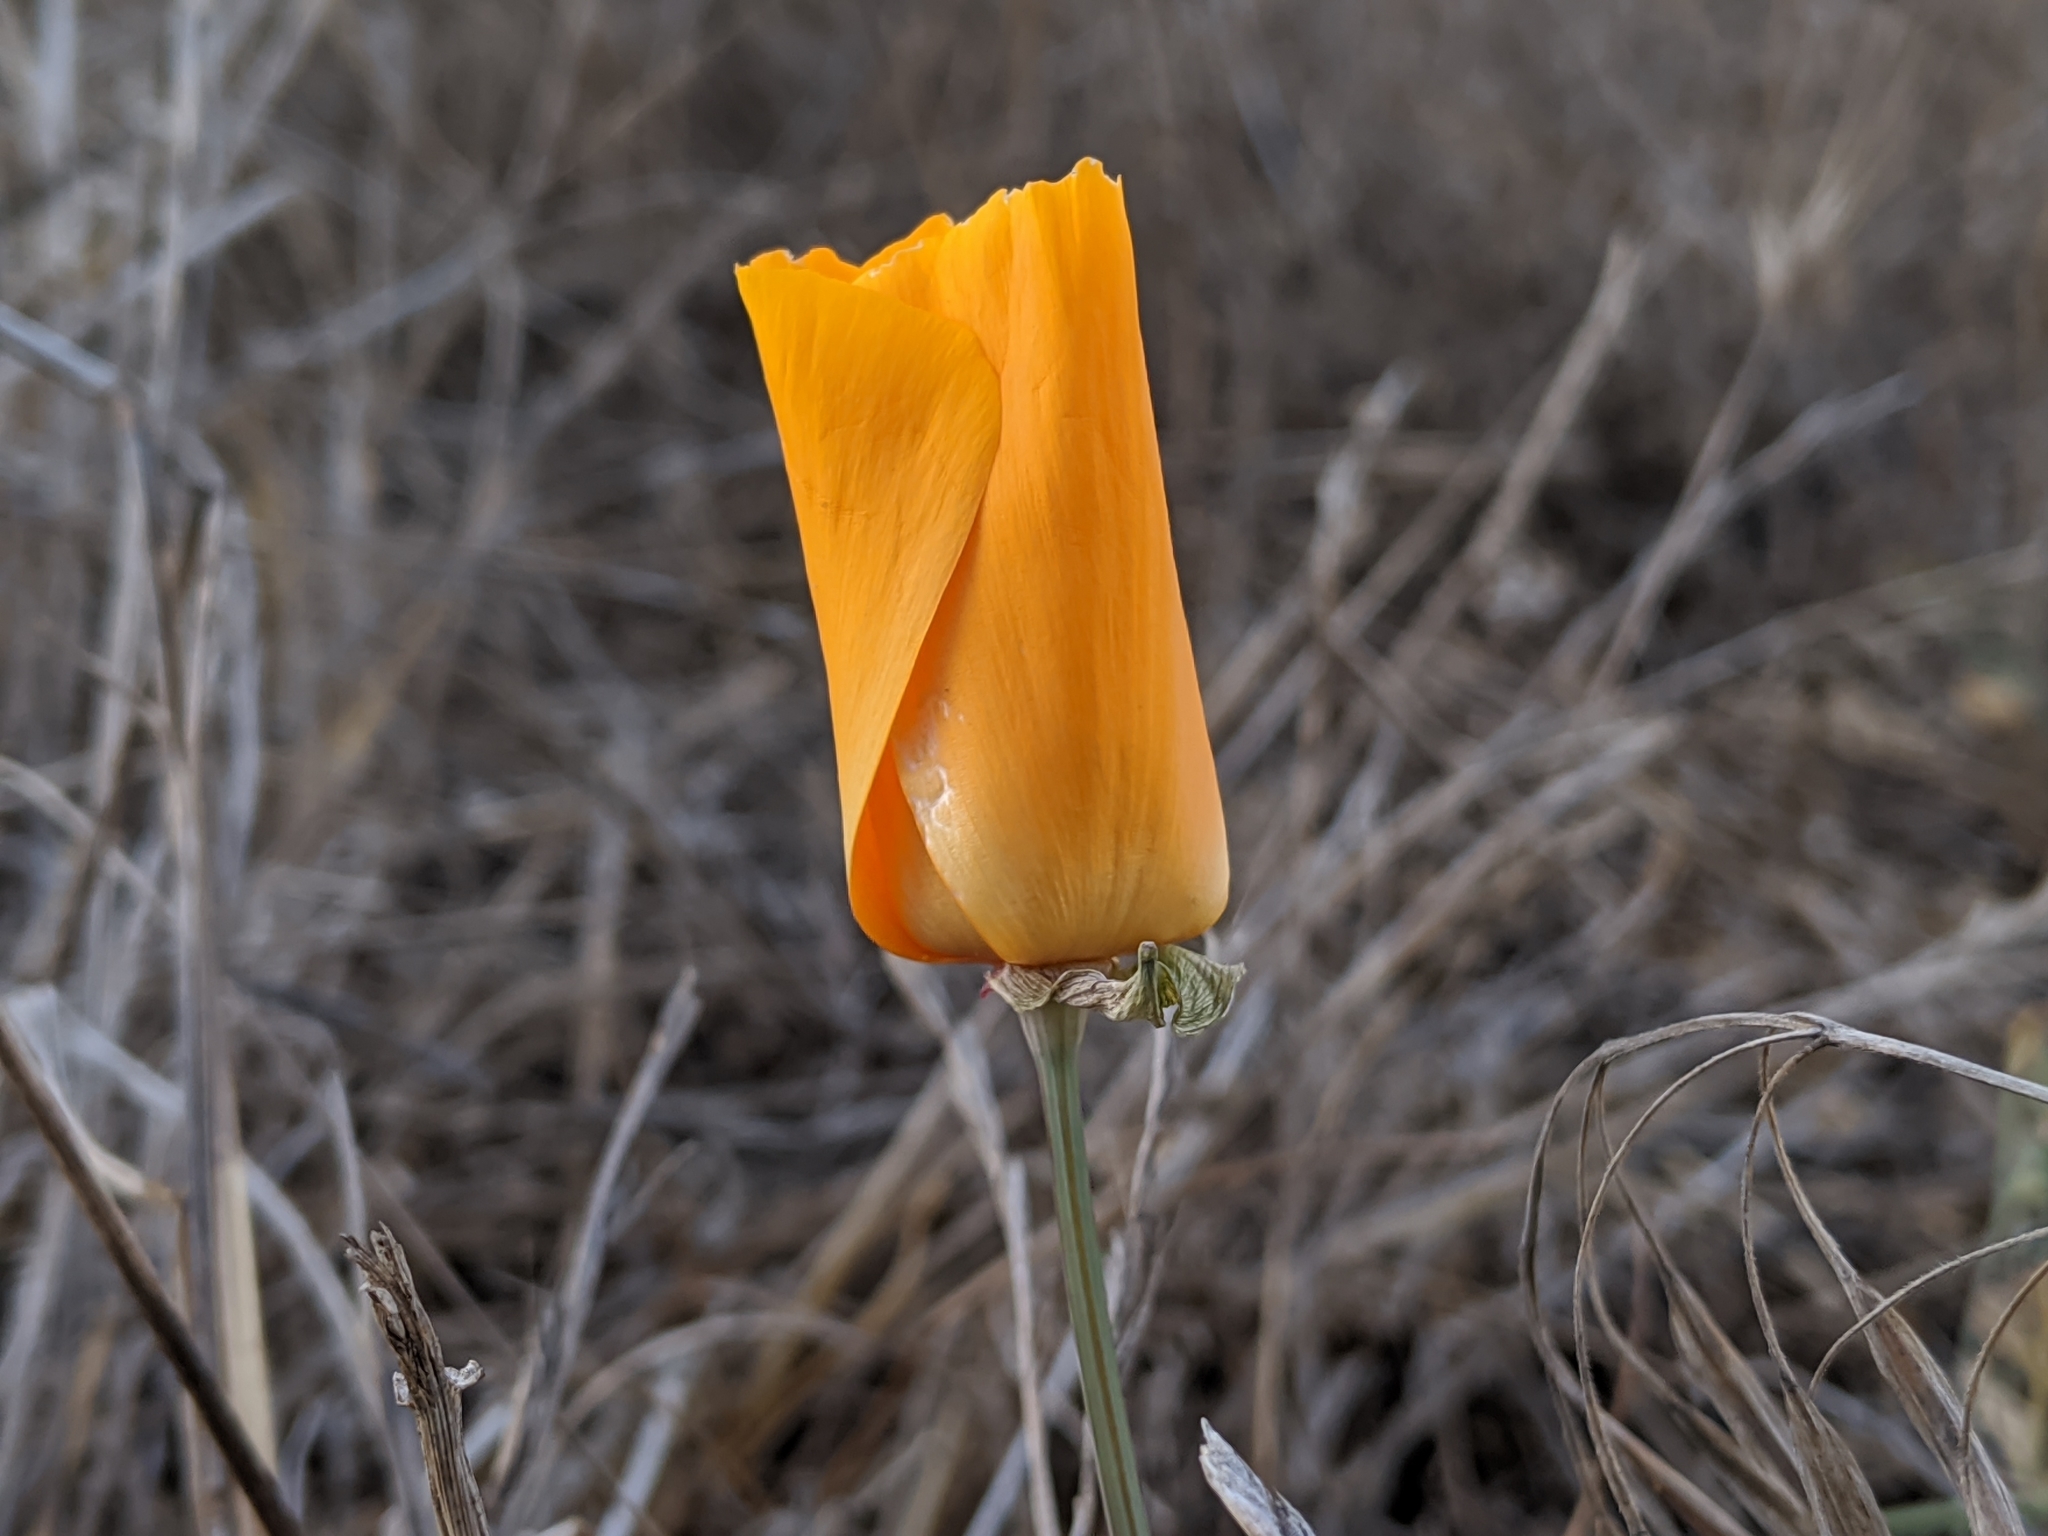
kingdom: Plantae
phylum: Tracheophyta
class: Magnoliopsida
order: Ranunculales
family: Papaveraceae
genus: Eschscholzia
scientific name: Eschscholzia californica
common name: California poppy
